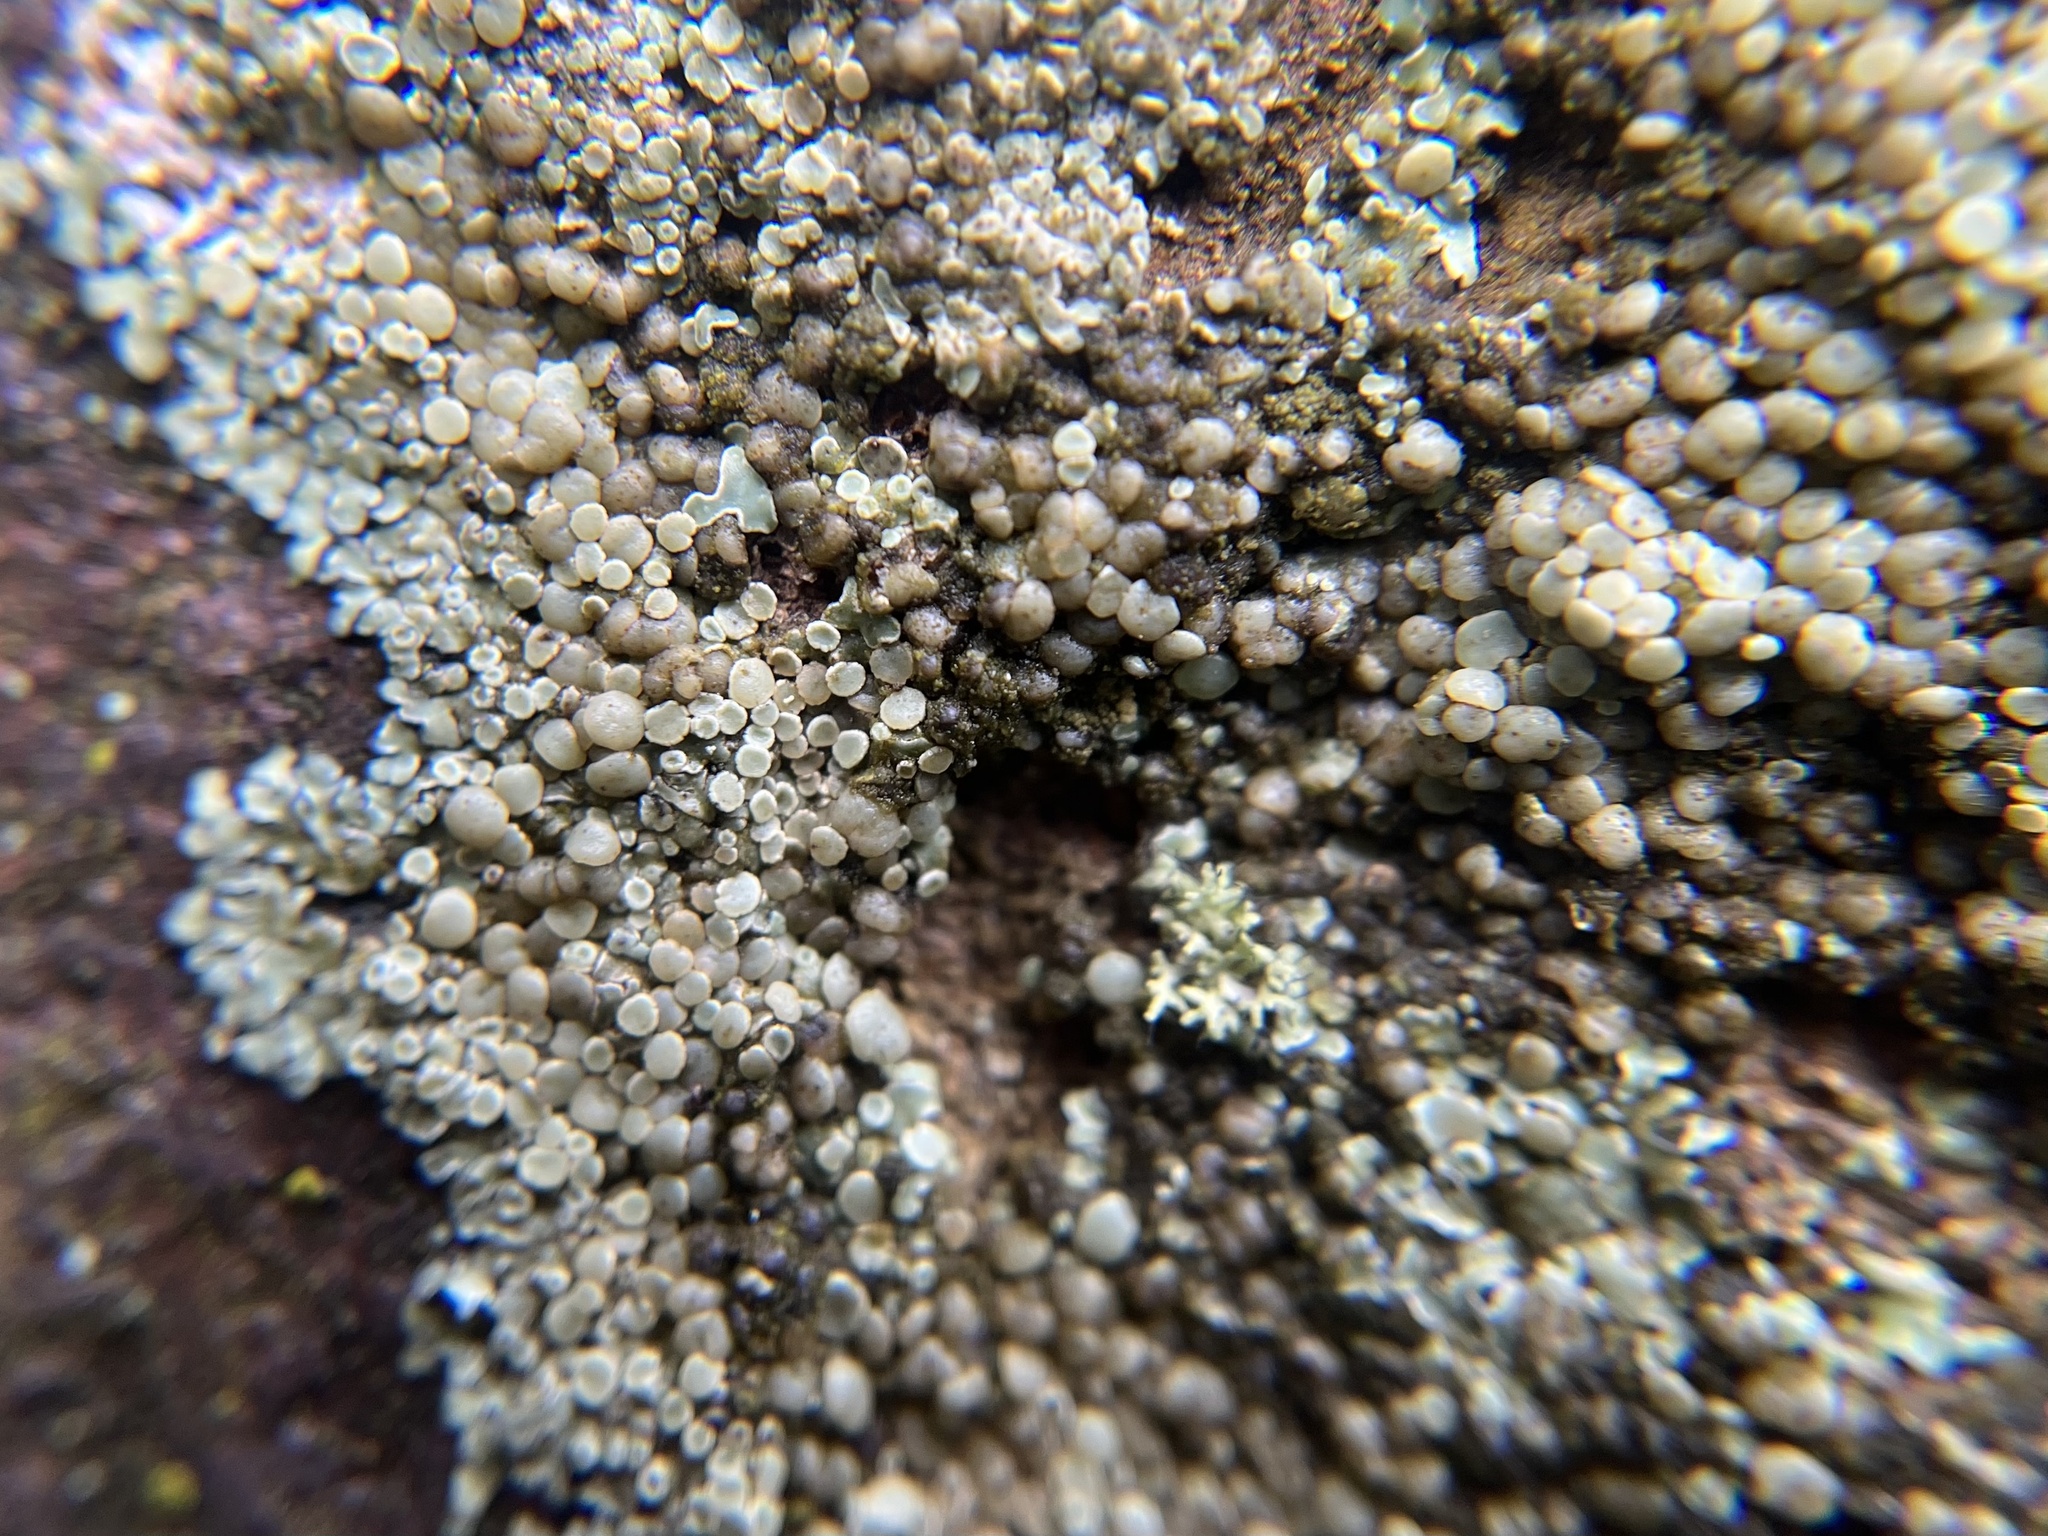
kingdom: Fungi
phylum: Ascomycota
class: Lecanoromycetes
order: Lecanorales
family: Lecanoraceae
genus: Protoparmeliopsis
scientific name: Protoparmeliopsis muralis
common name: Stonewall rim lichen
